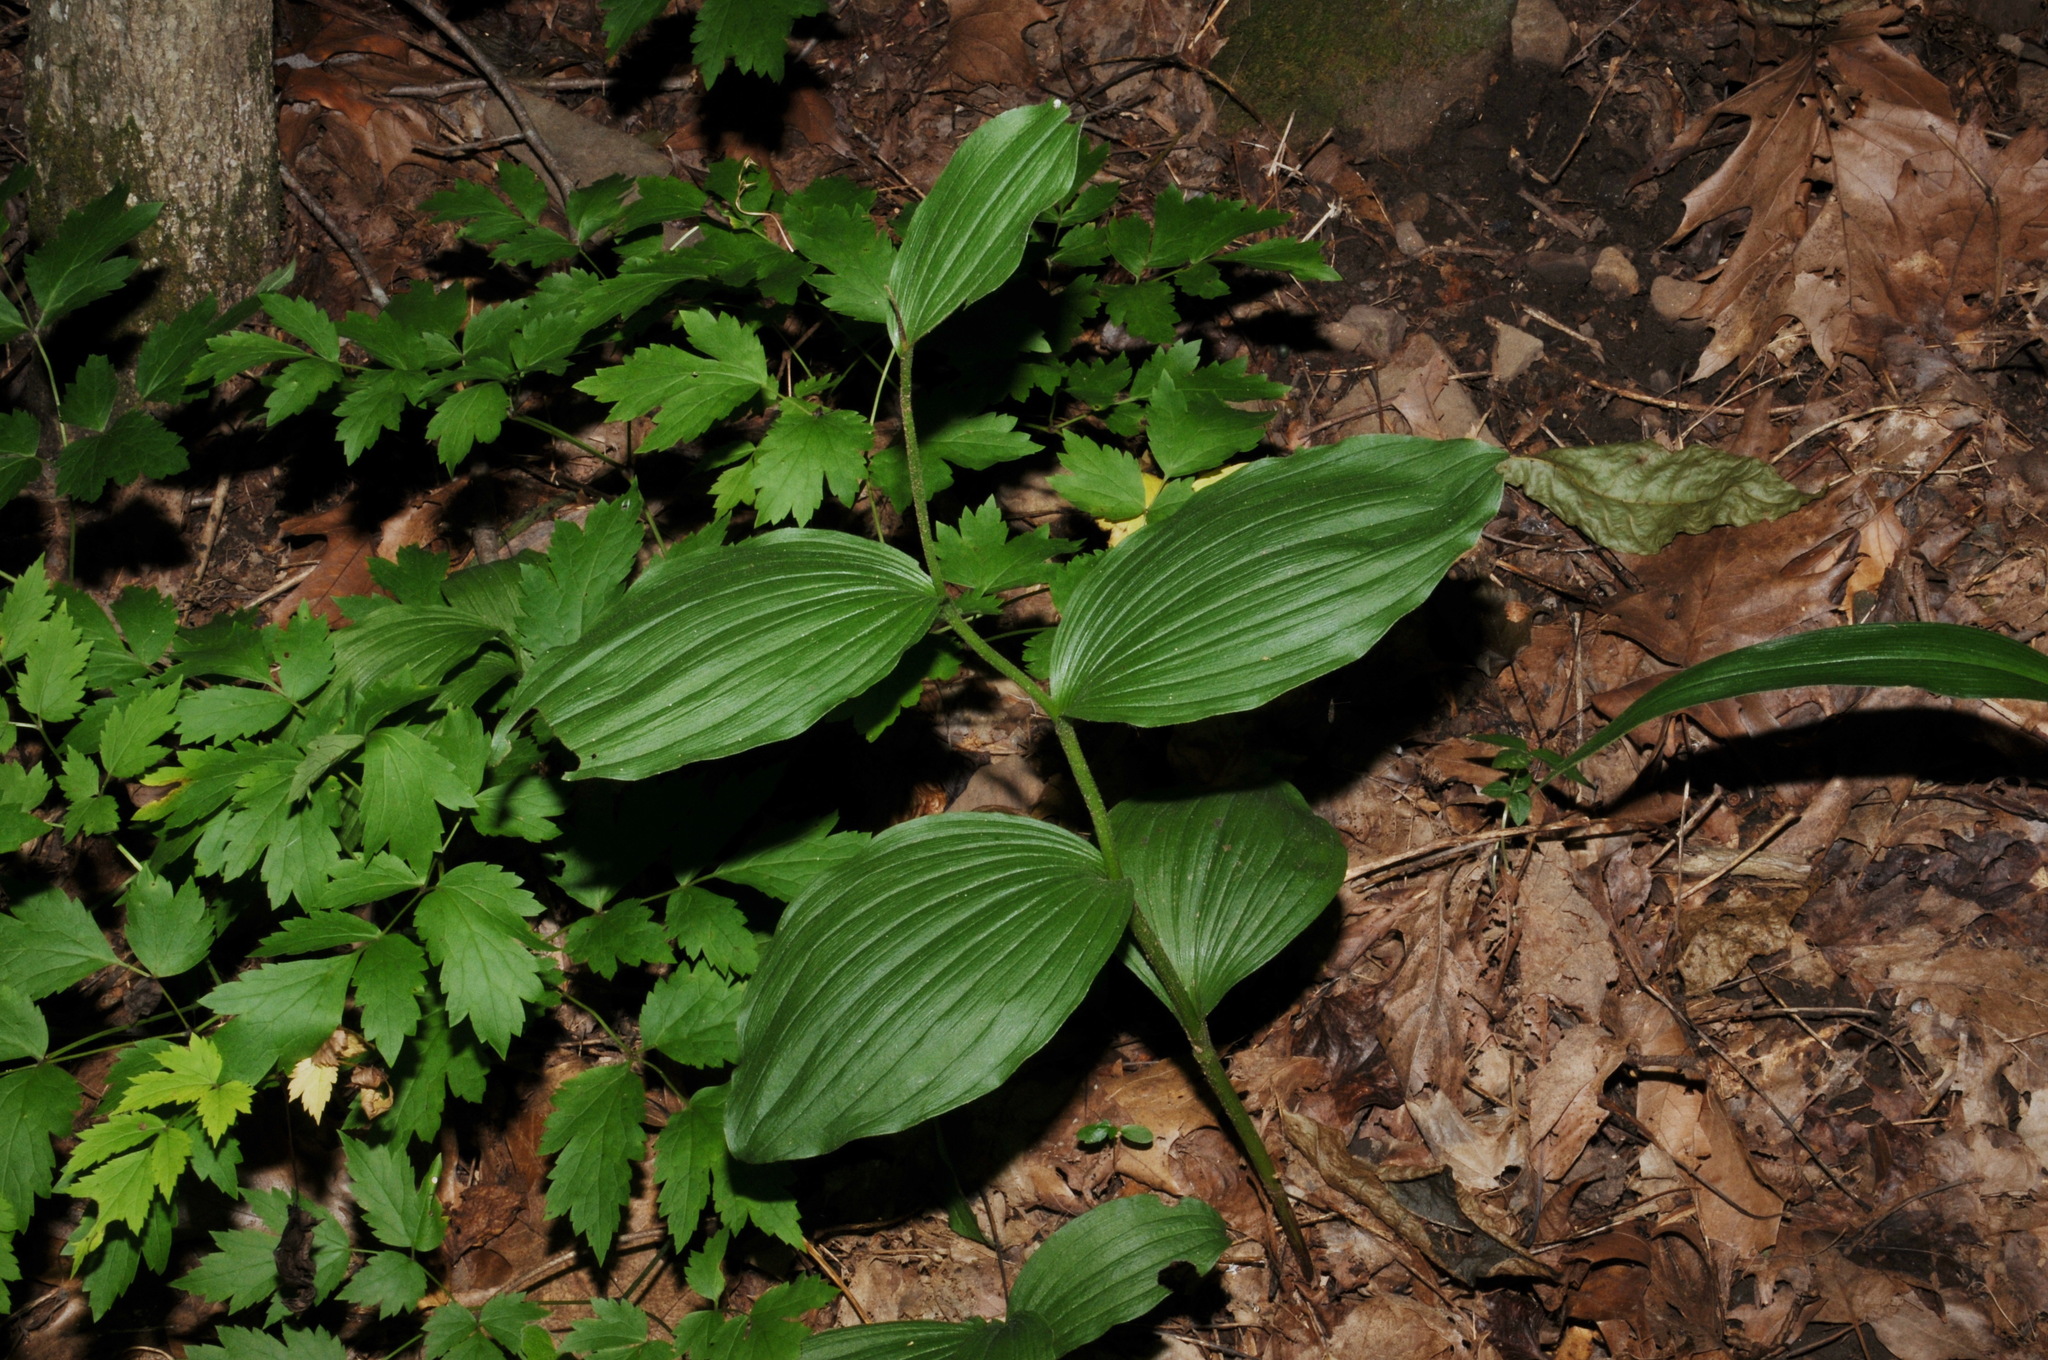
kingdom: Plantae
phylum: Tracheophyta
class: Liliopsida
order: Asparagales
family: Orchidaceae
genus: Cypripedium
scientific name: Cypripedium parviflorum
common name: American yellow lady's-slipper
